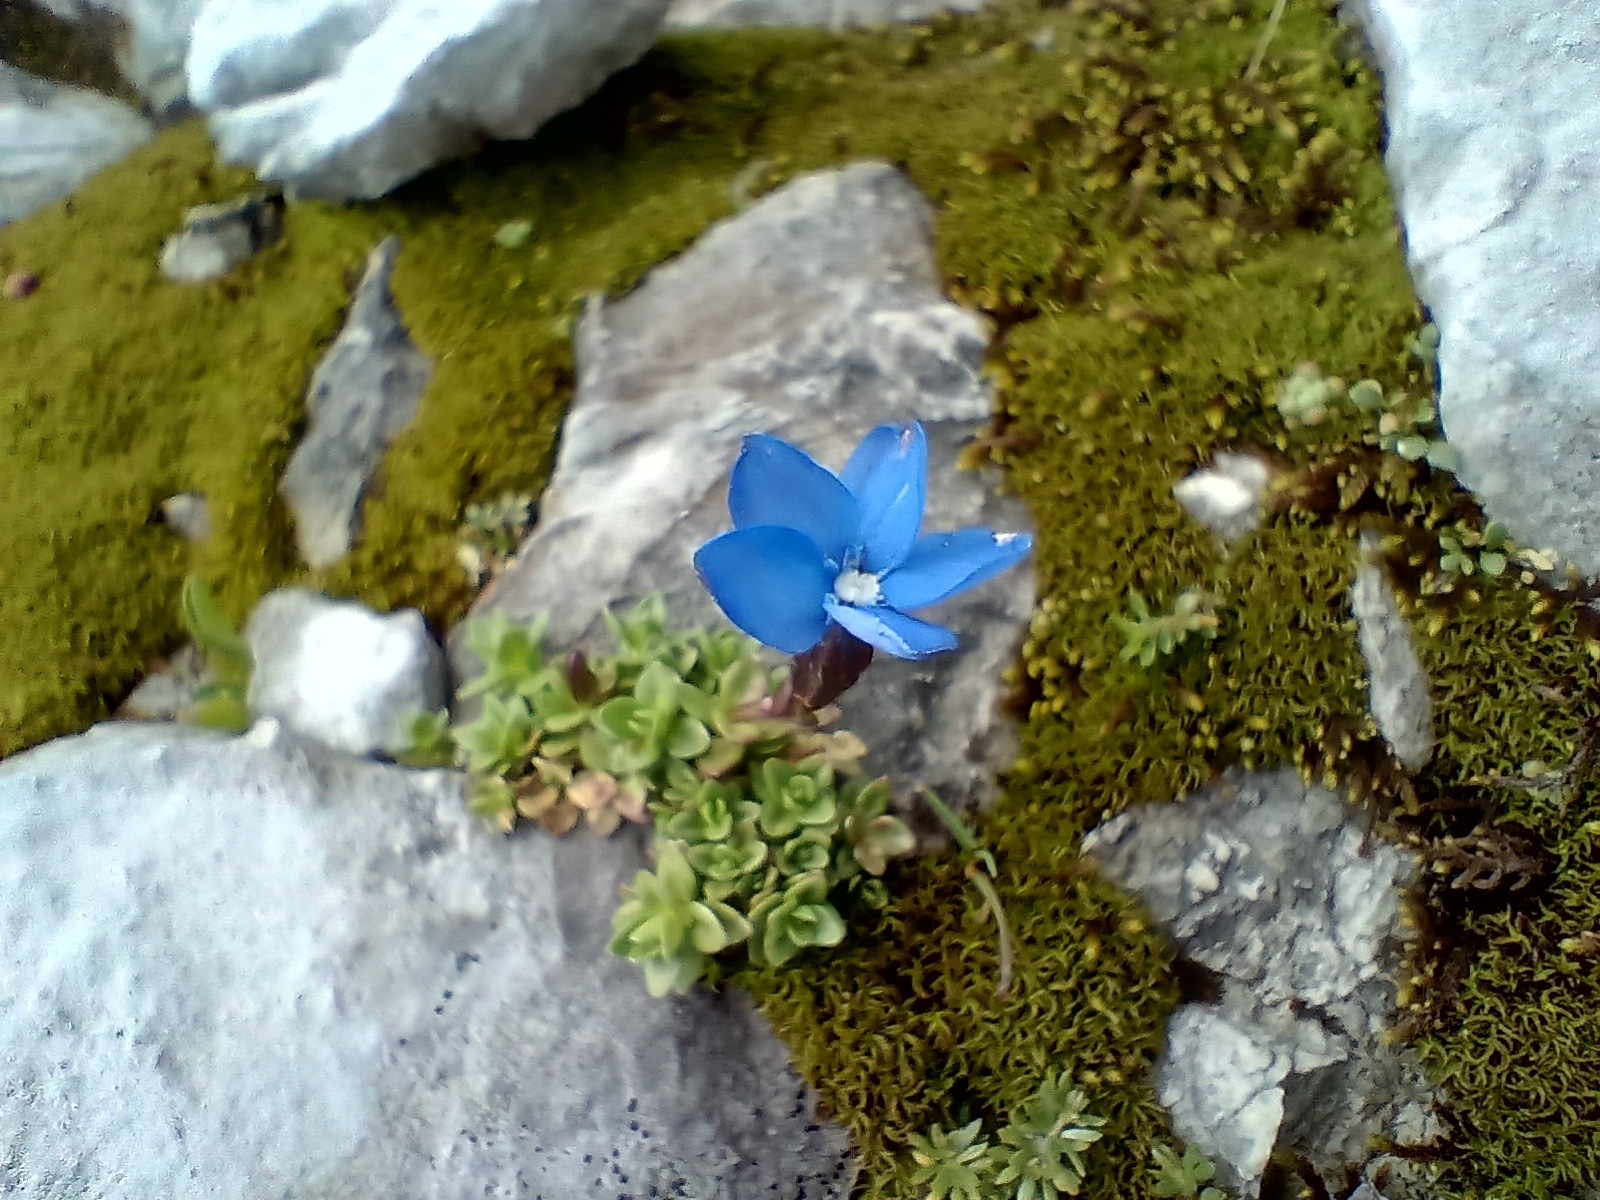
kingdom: Plantae
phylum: Tracheophyta
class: Magnoliopsida
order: Gentianales
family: Gentianaceae
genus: Gentiana
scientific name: Gentiana orbicularis
